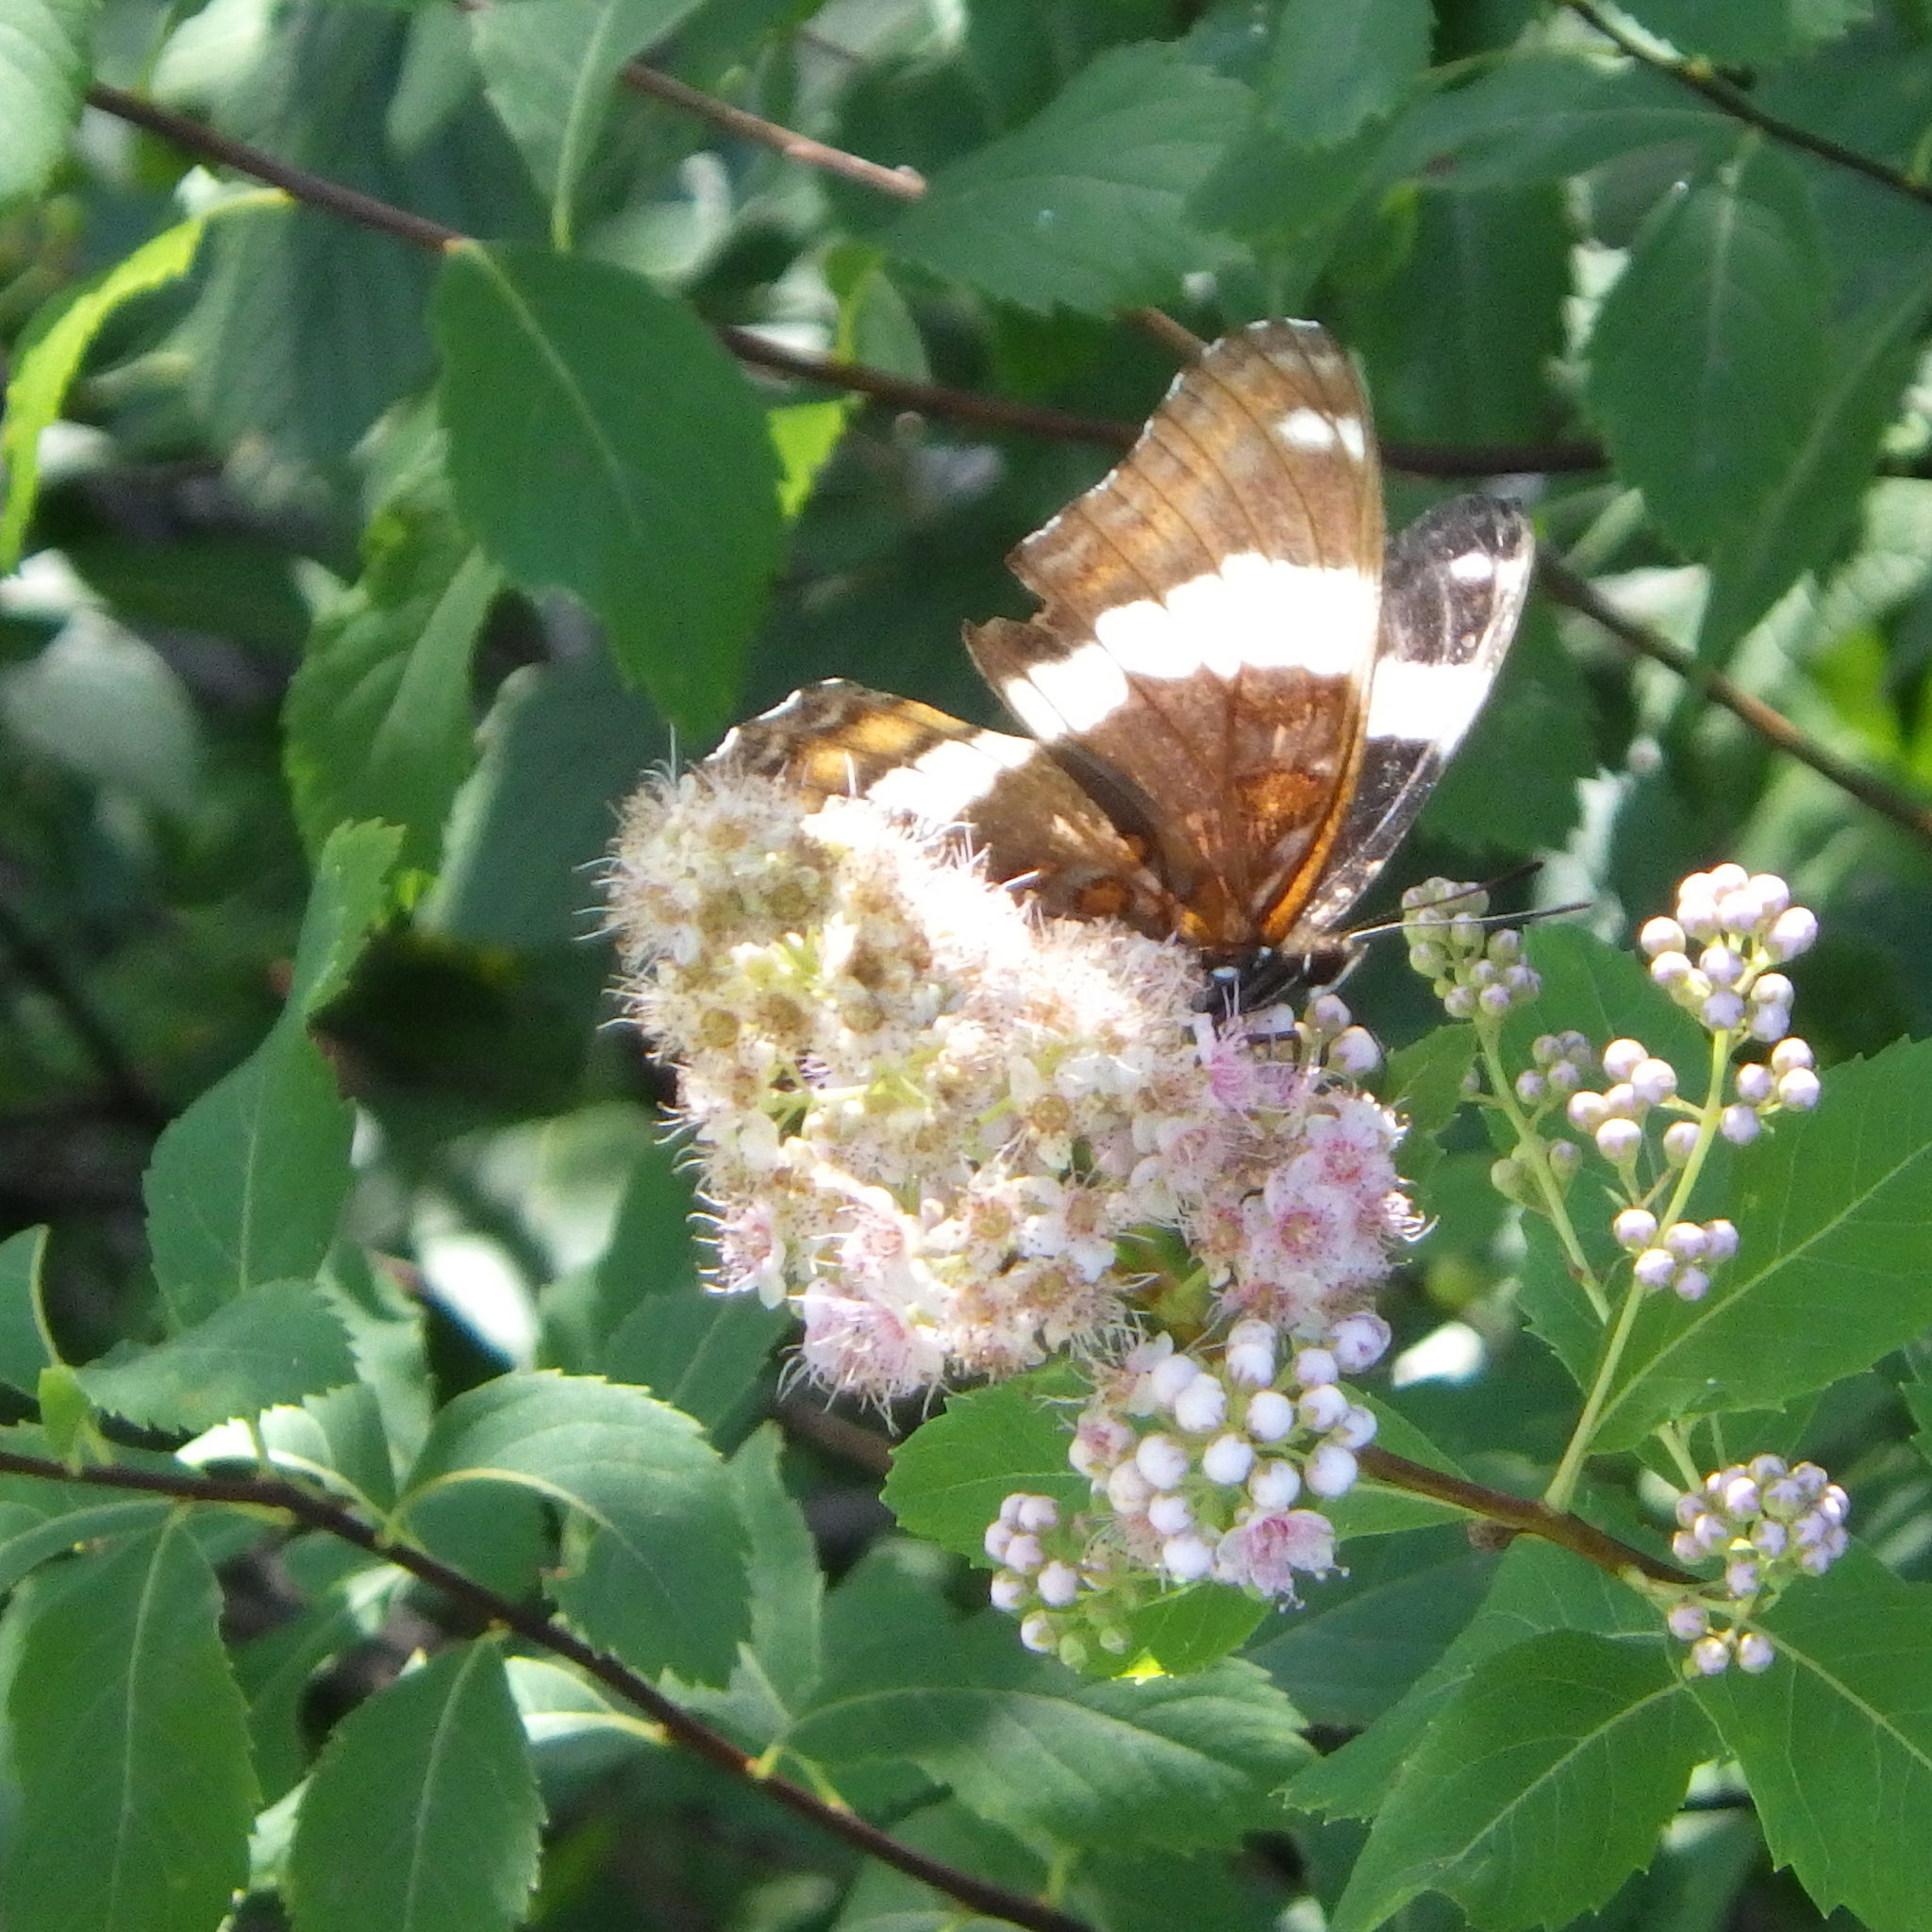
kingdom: Animalia
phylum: Arthropoda
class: Insecta
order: Lepidoptera
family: Nymphalidae
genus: Limenitis
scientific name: Limenitis arthemis
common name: Red-spotted admiral
